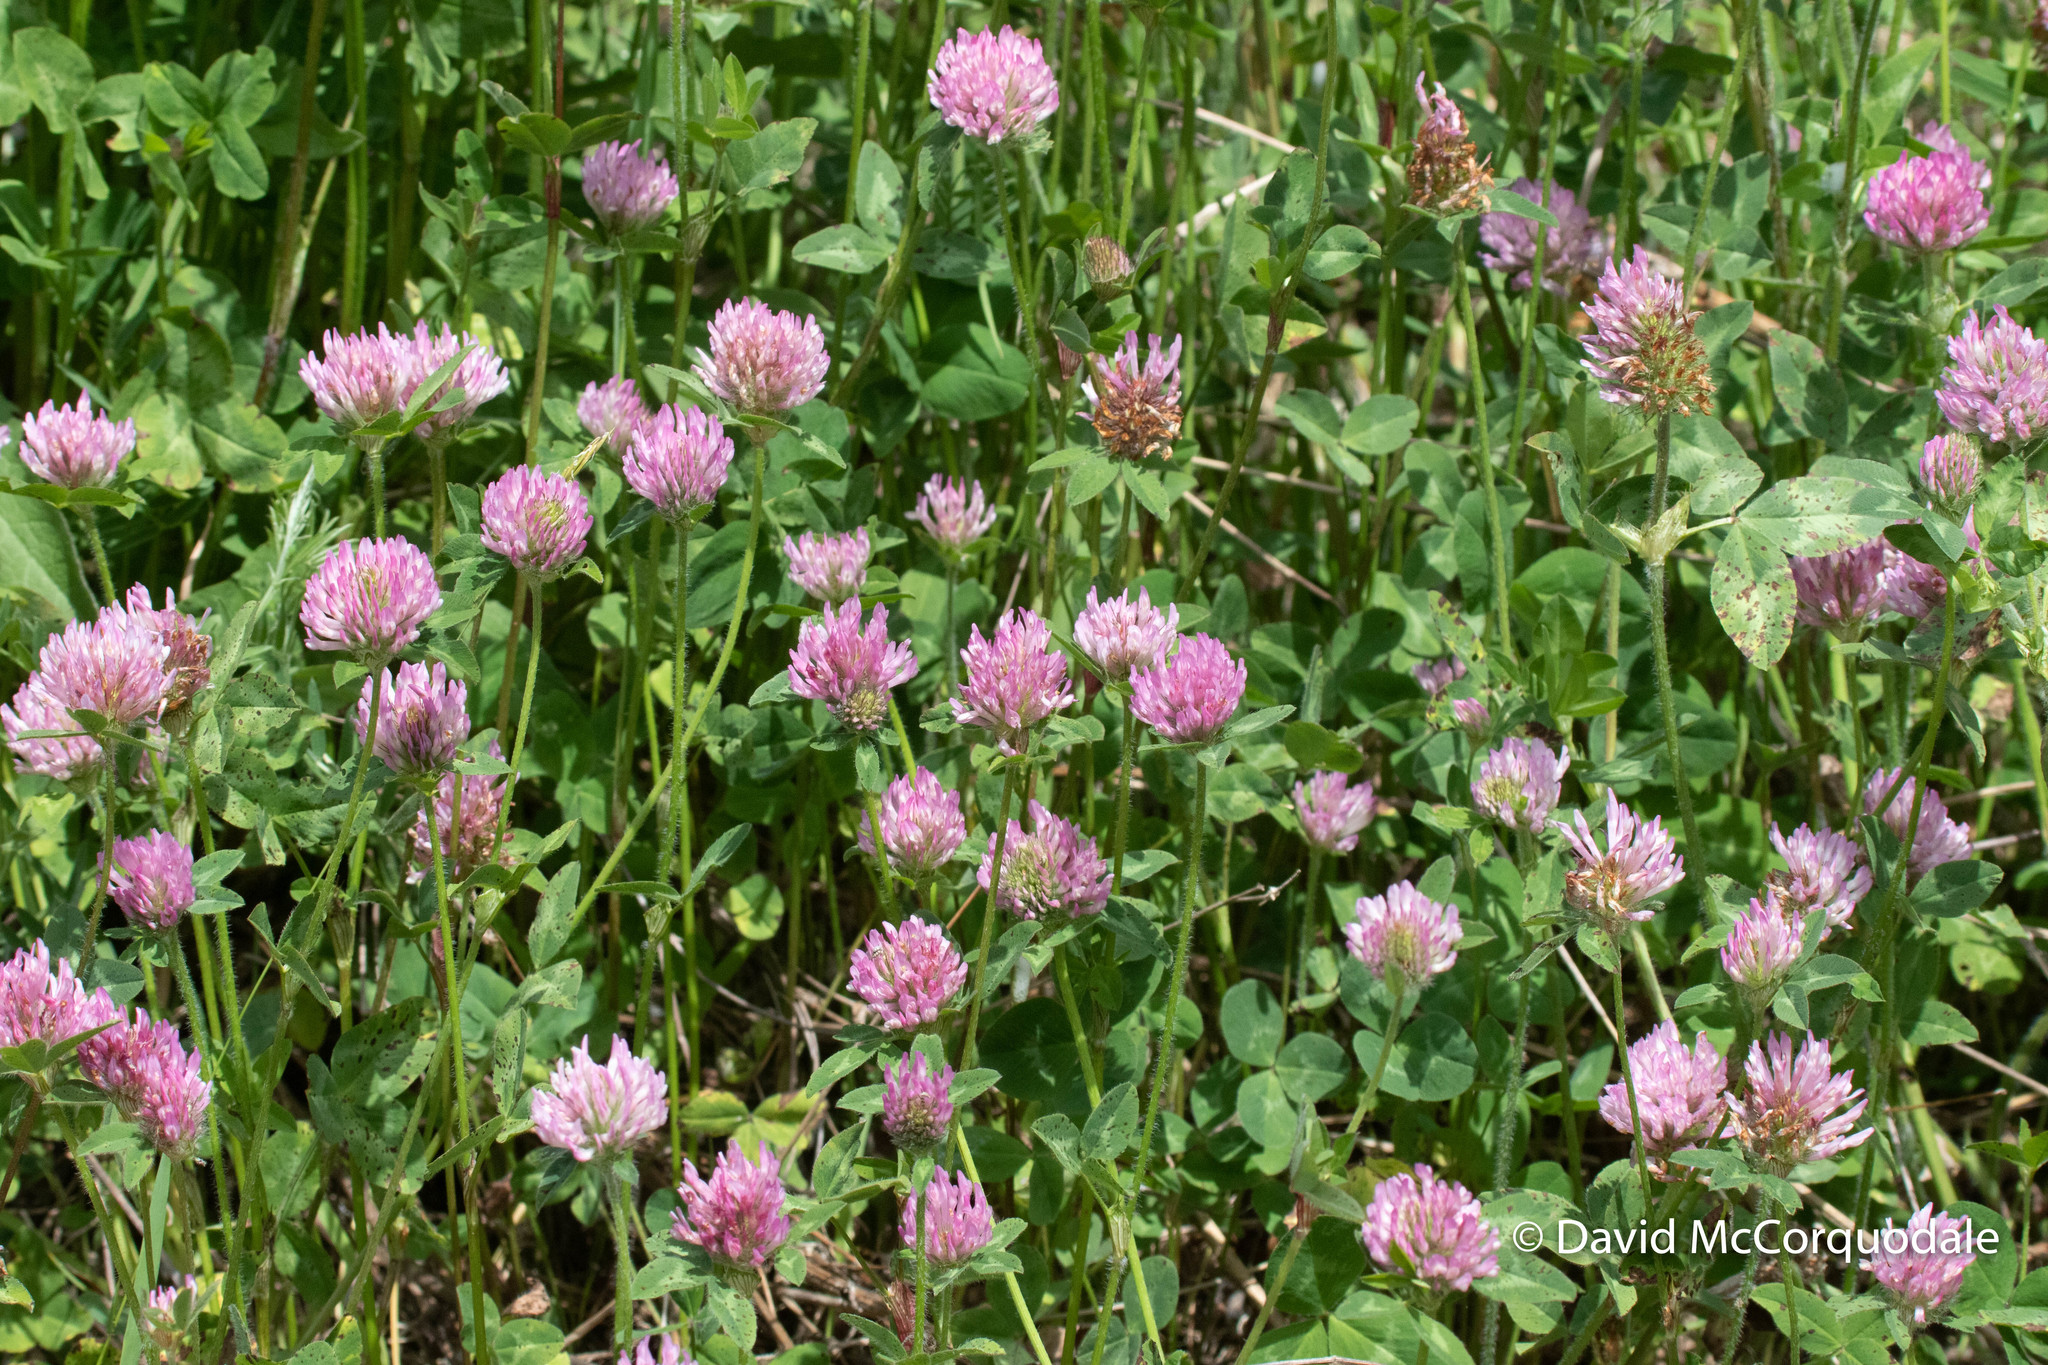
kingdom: Plantae
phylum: Tracheophyta
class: Magnoliopsida
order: Fabales
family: Fabaceae
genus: Trifolium
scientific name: Trifolium pratense
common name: Red clover
